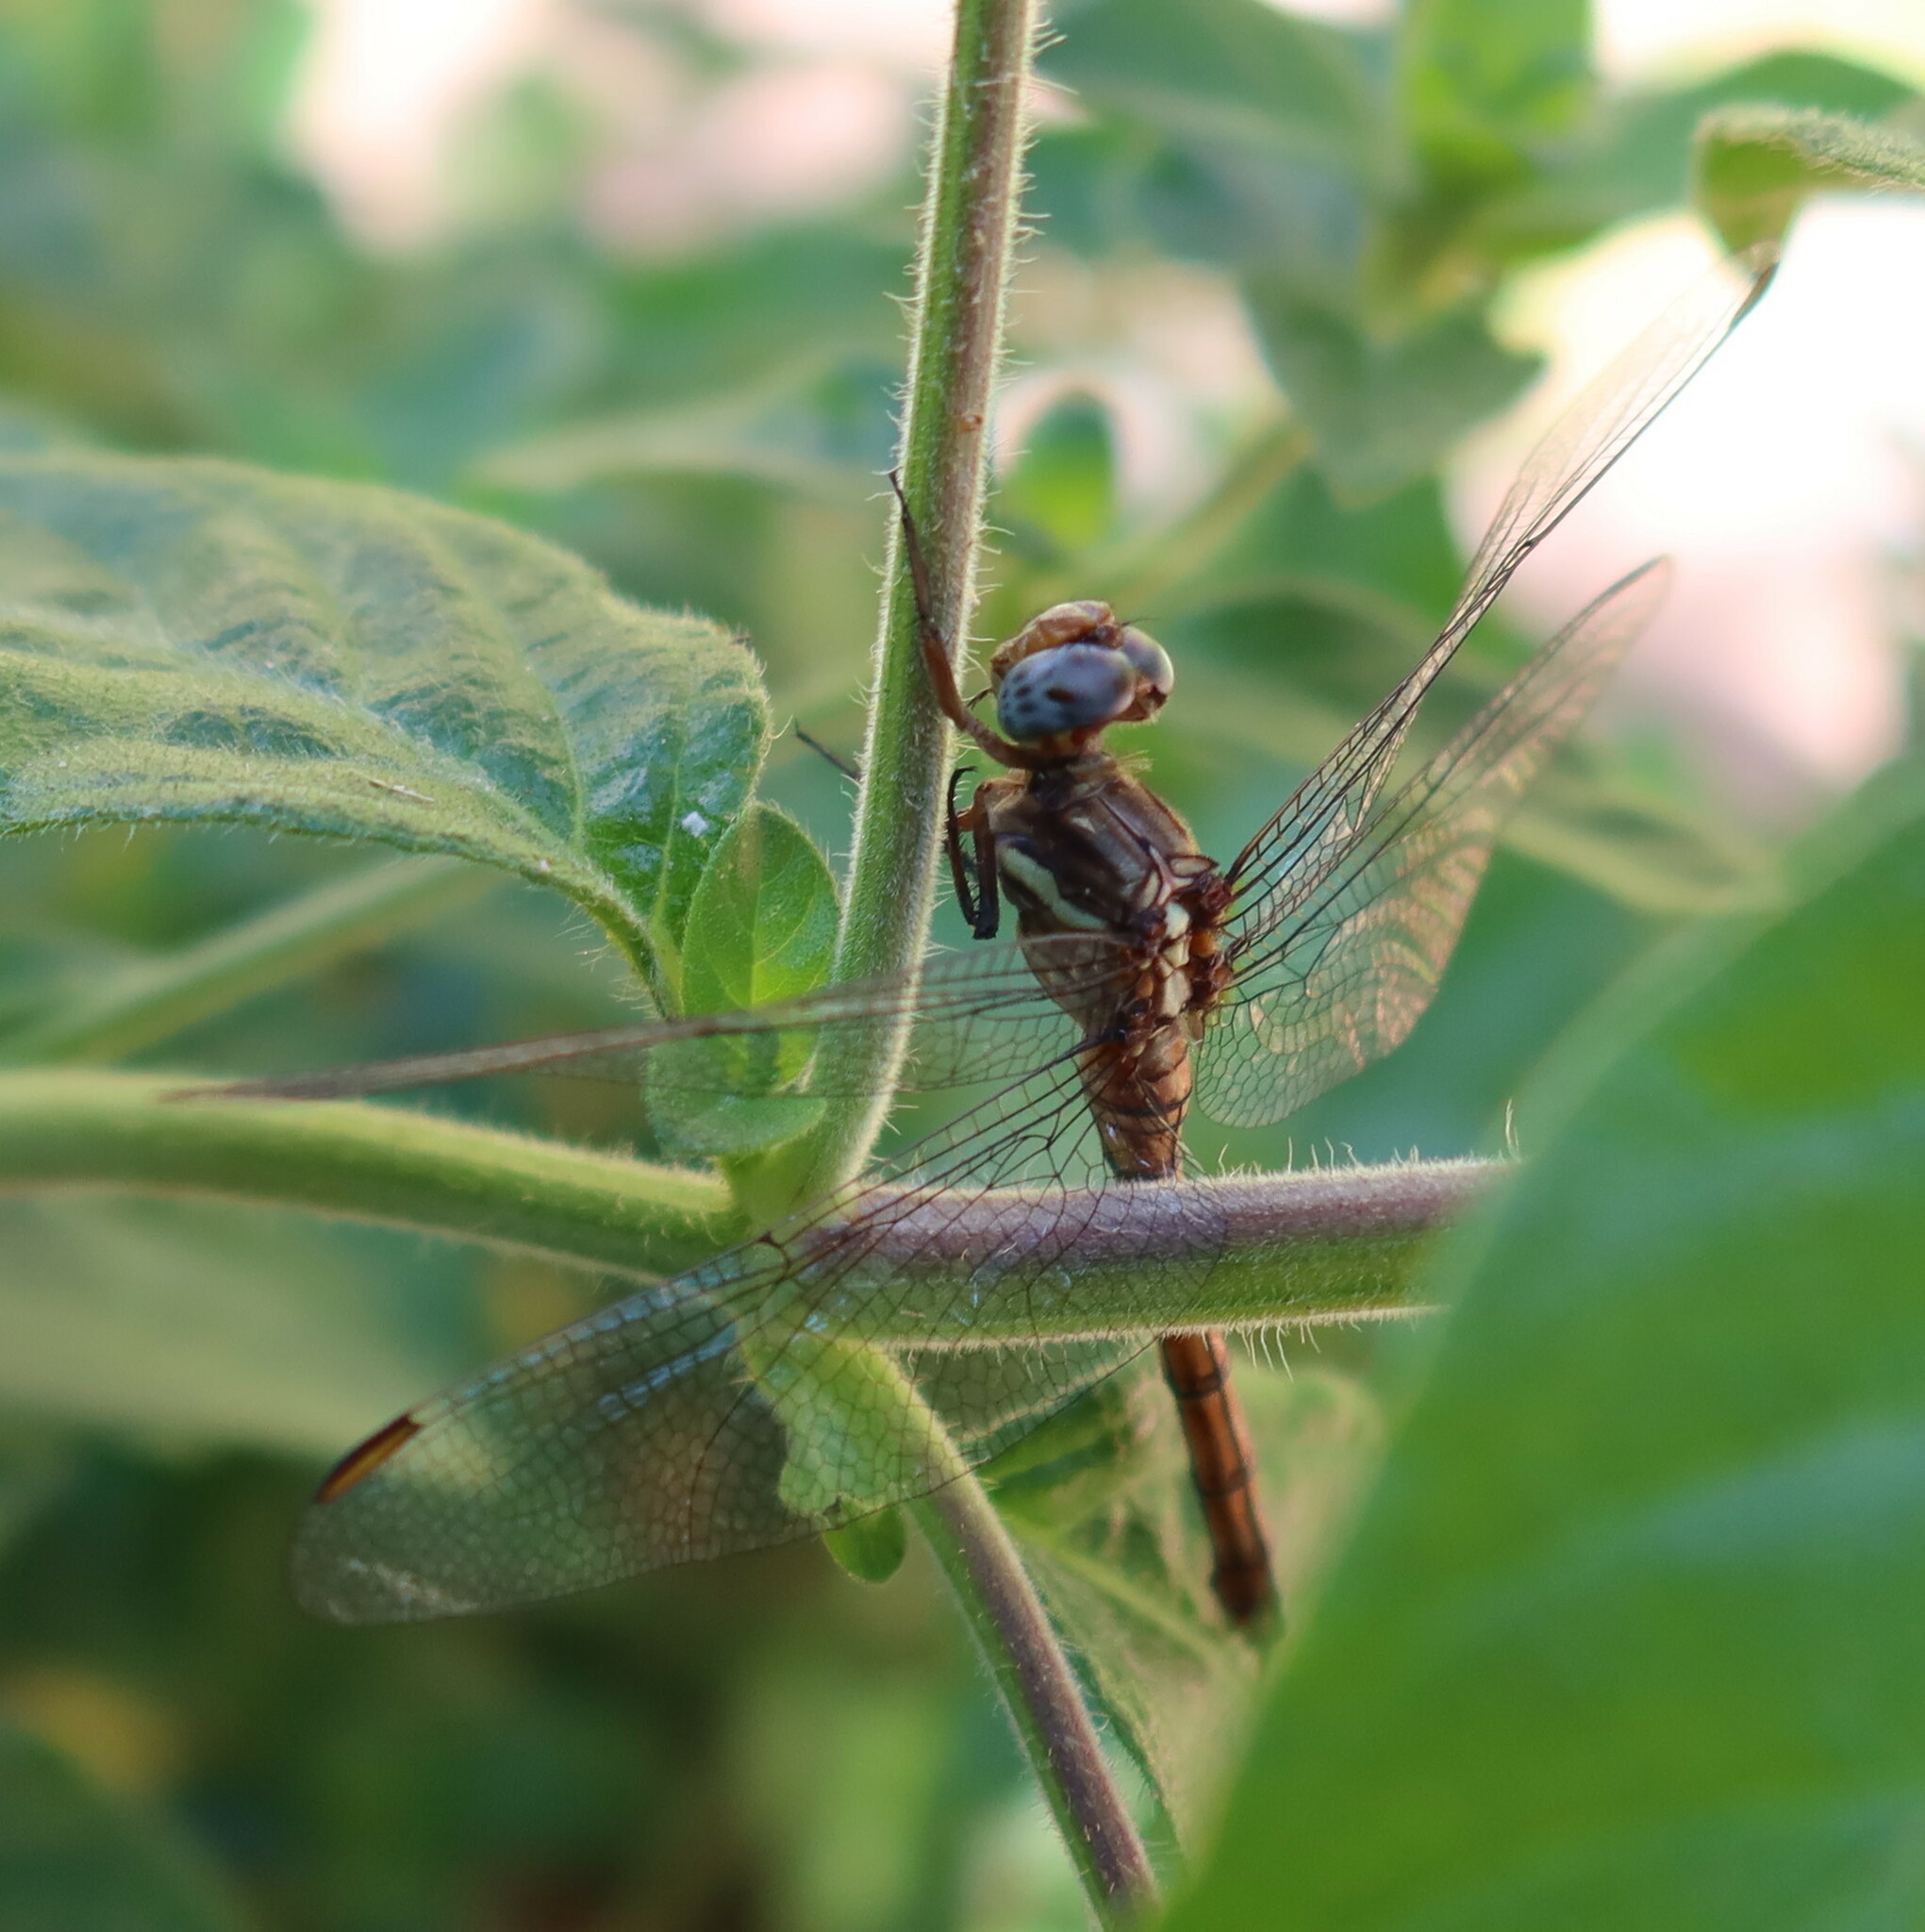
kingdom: Animalia
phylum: Arthropoda
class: Insecta
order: Odonata
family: Libellulidae
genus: Orthetrum
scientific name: Orthetrum julia
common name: Julia skimmer
